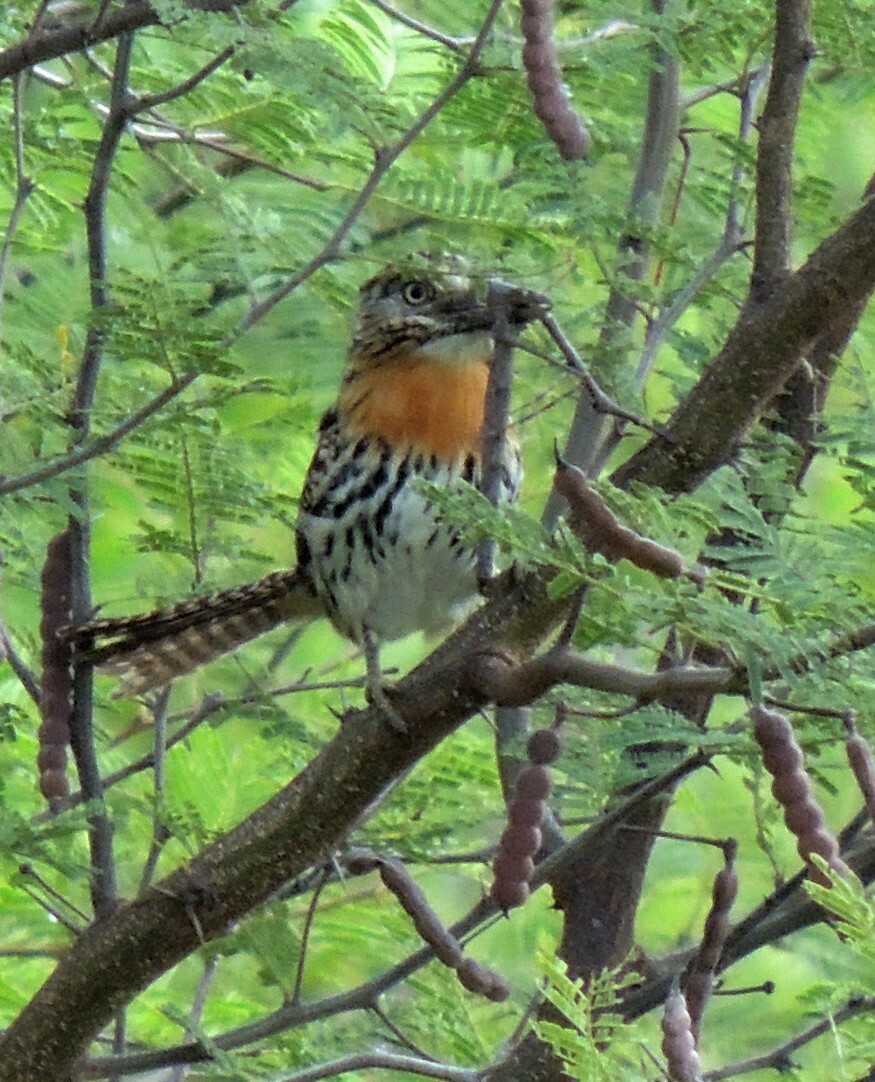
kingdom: Animalia
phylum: Chordata
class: Aves
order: Piciformes
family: Bucconidae
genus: Nystalus
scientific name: Nystalus maculatus
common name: Caatinga puffbird
